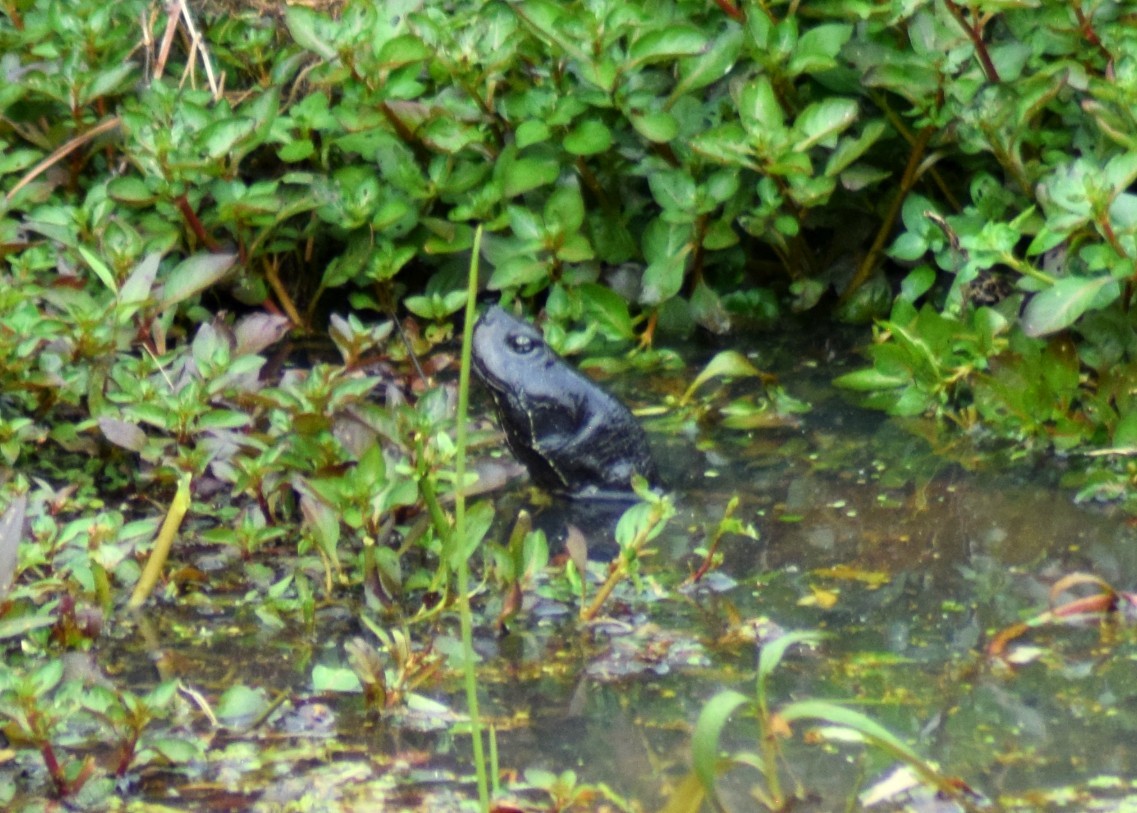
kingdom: Animalia
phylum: Chordata
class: Testudines
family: Emydidae
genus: Pseudemys
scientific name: Pseudemys rubriventris
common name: American red-bellied turtle
